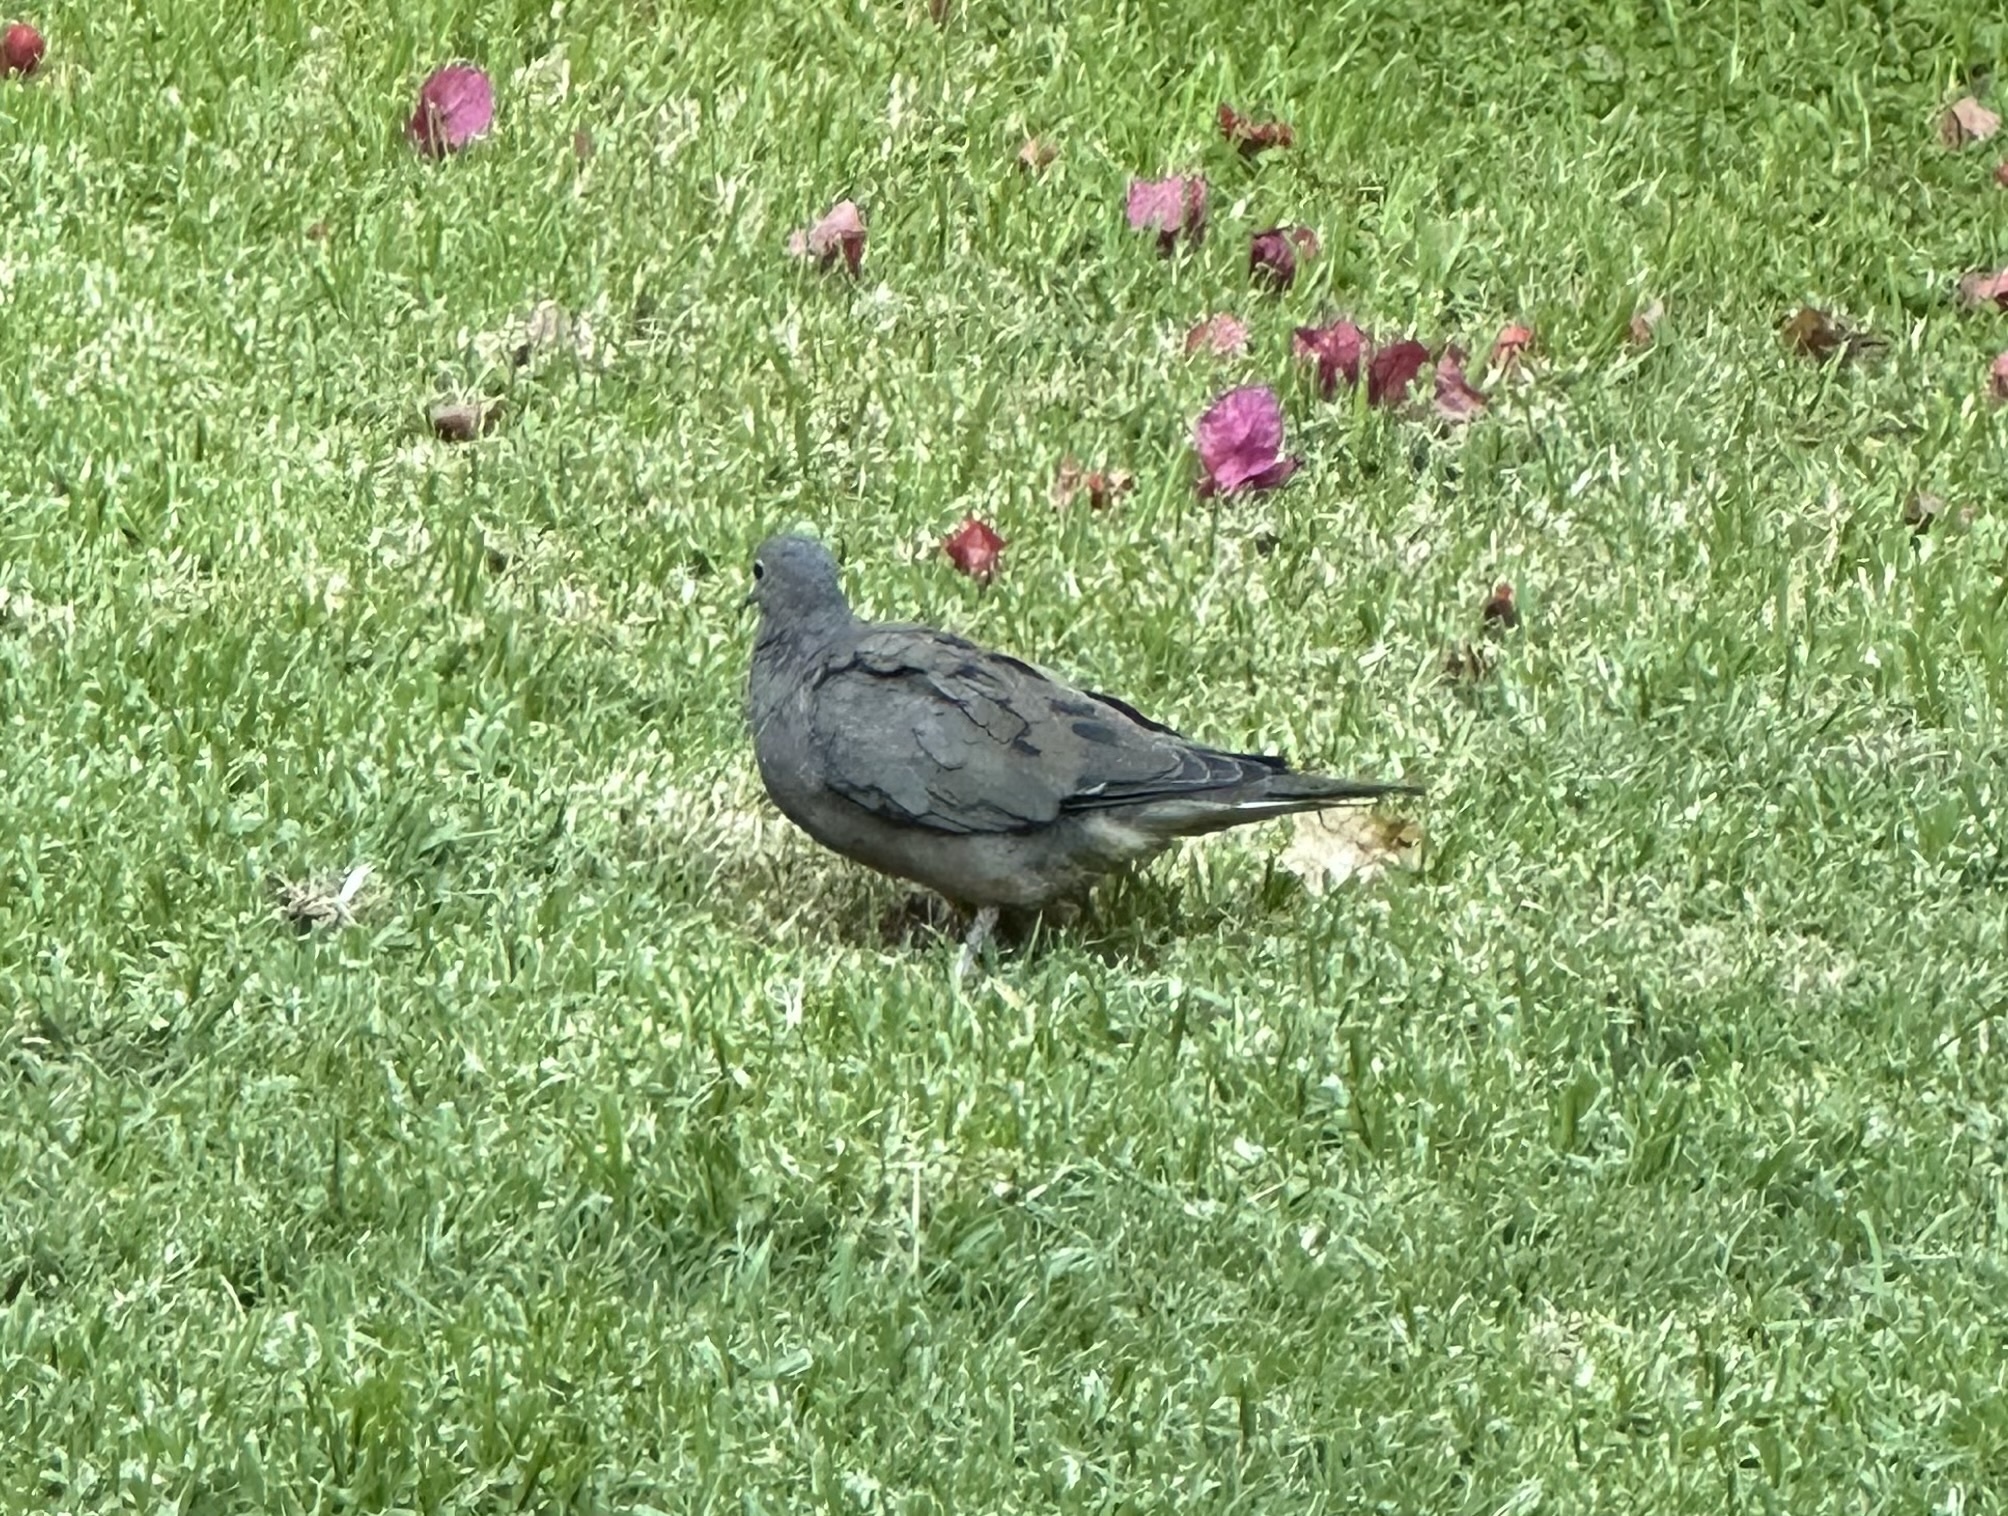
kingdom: Animalia
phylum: Chordata
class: Aves
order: Columbiformes
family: Columbidae
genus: Zenaida
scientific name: Zenaida auriculata
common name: Eared dove
